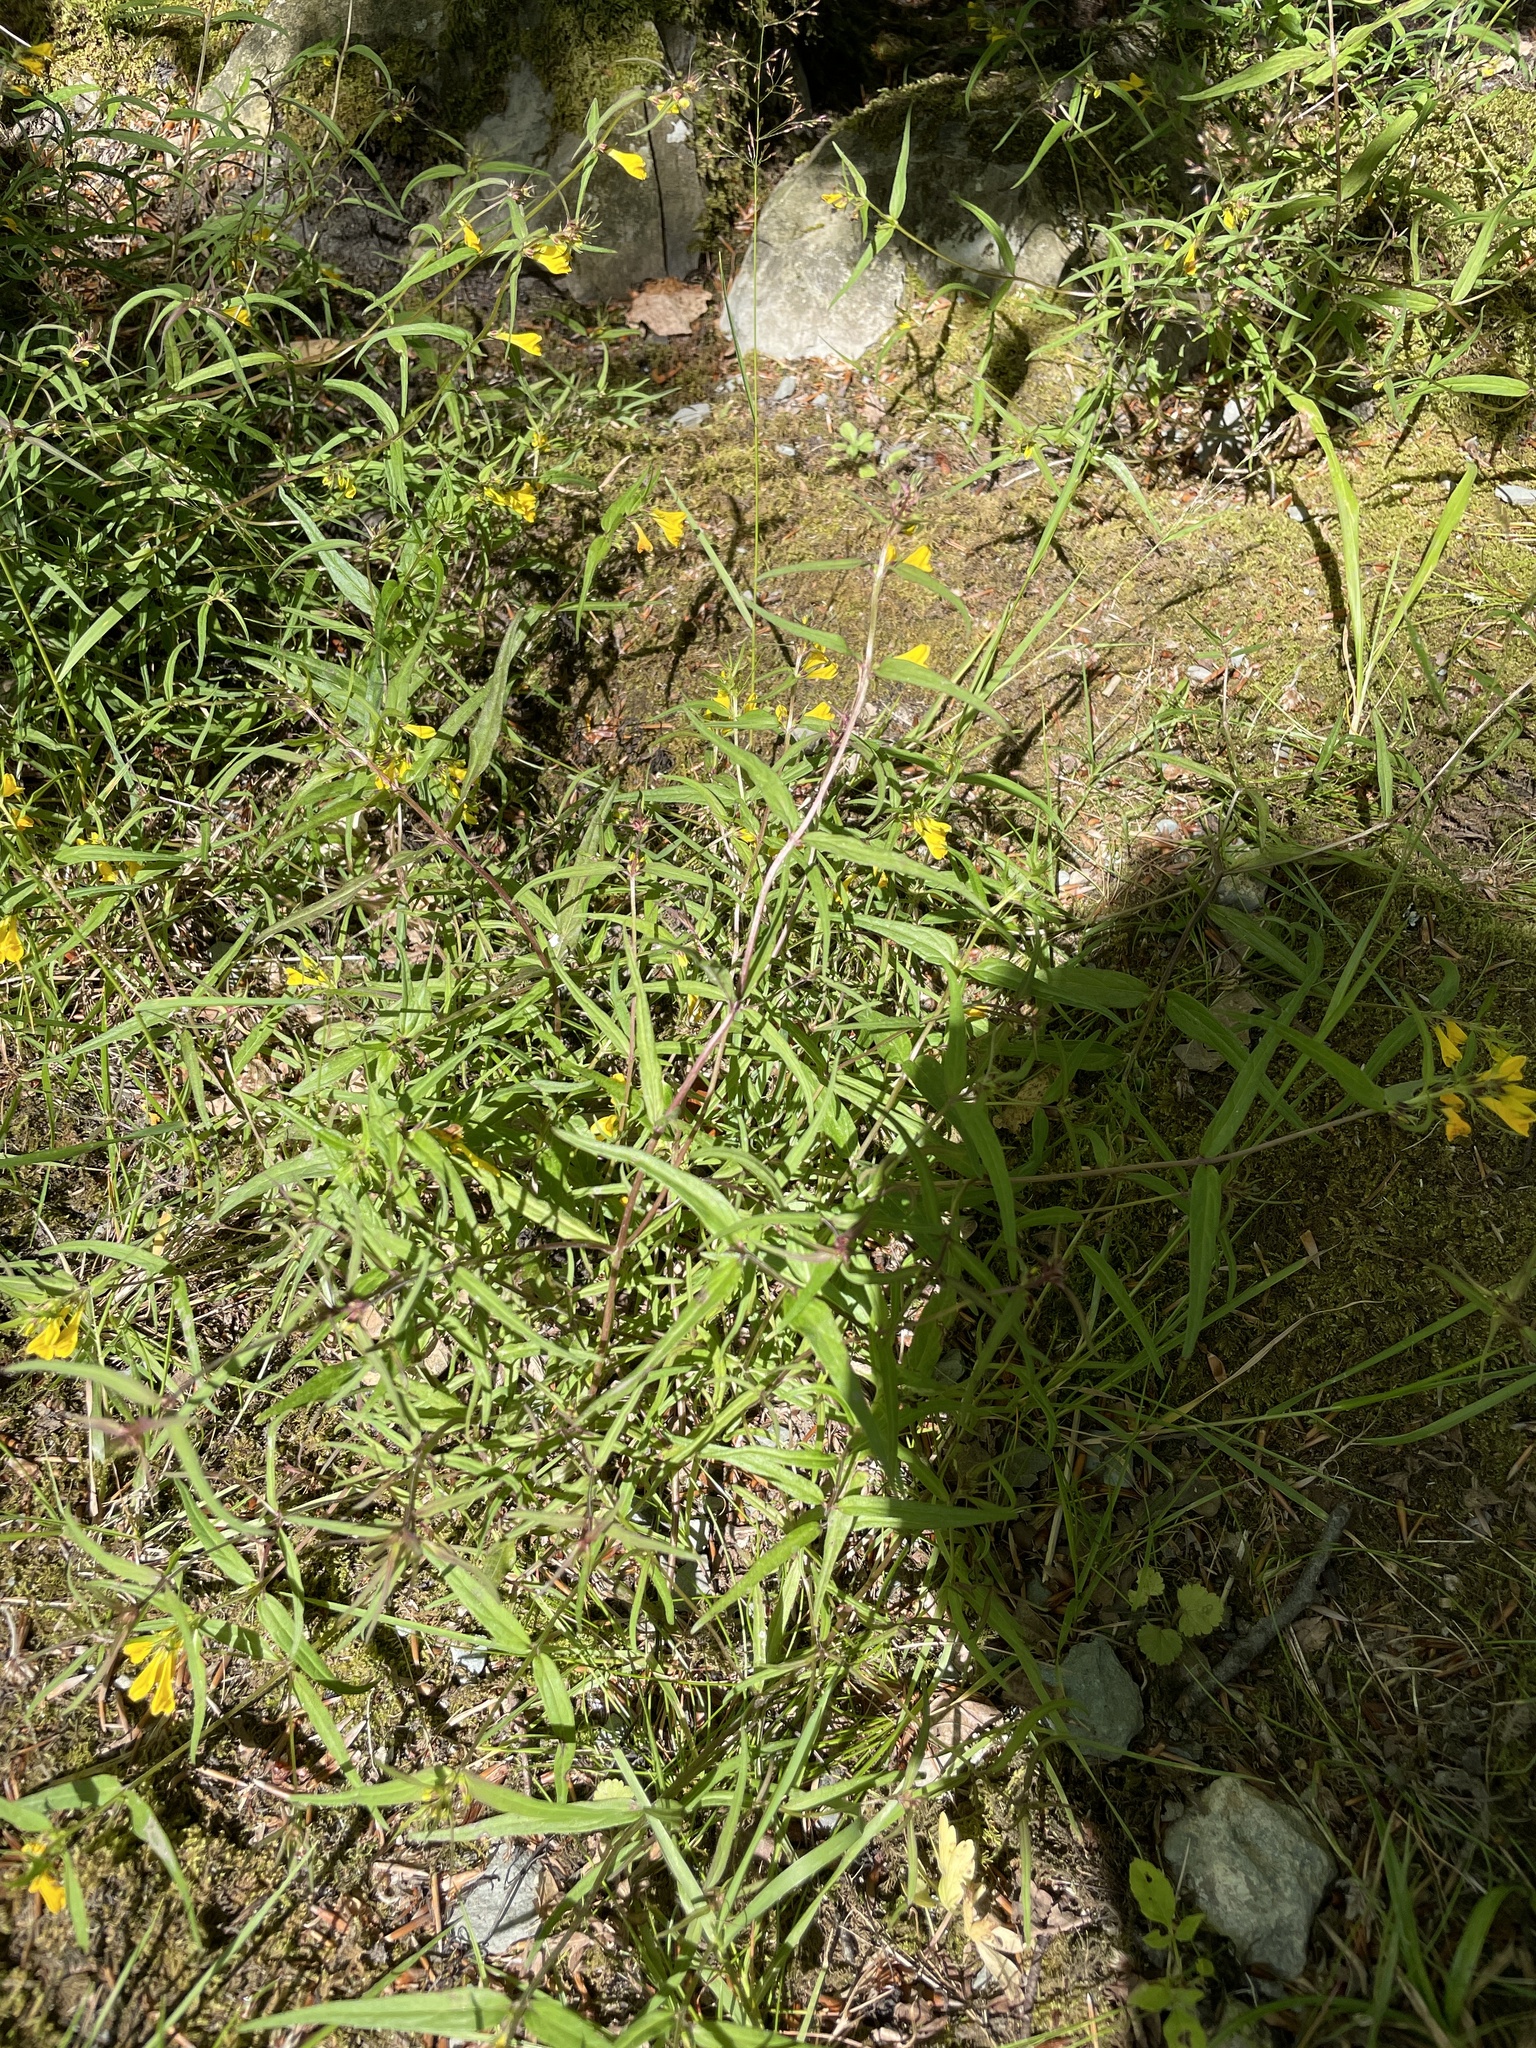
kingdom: Plantae
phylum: Tracheophyta
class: Magnoliopsida
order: Lamiales
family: Orobanchaceae
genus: Melampyrum
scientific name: Melampyrum pratense
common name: Common cow-wheat
